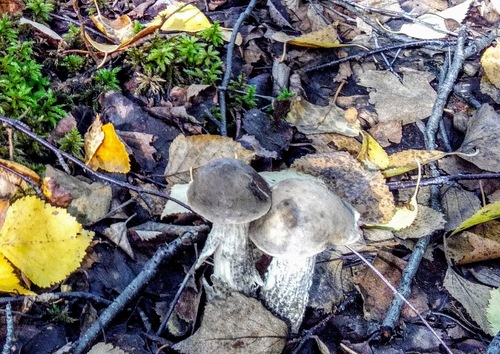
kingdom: Fungi
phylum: Basidiomycota
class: Agaricomycetes
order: Boletales
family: Boletaceae
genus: Leccinum
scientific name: Leccinum variicolor
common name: Mottled bolete
